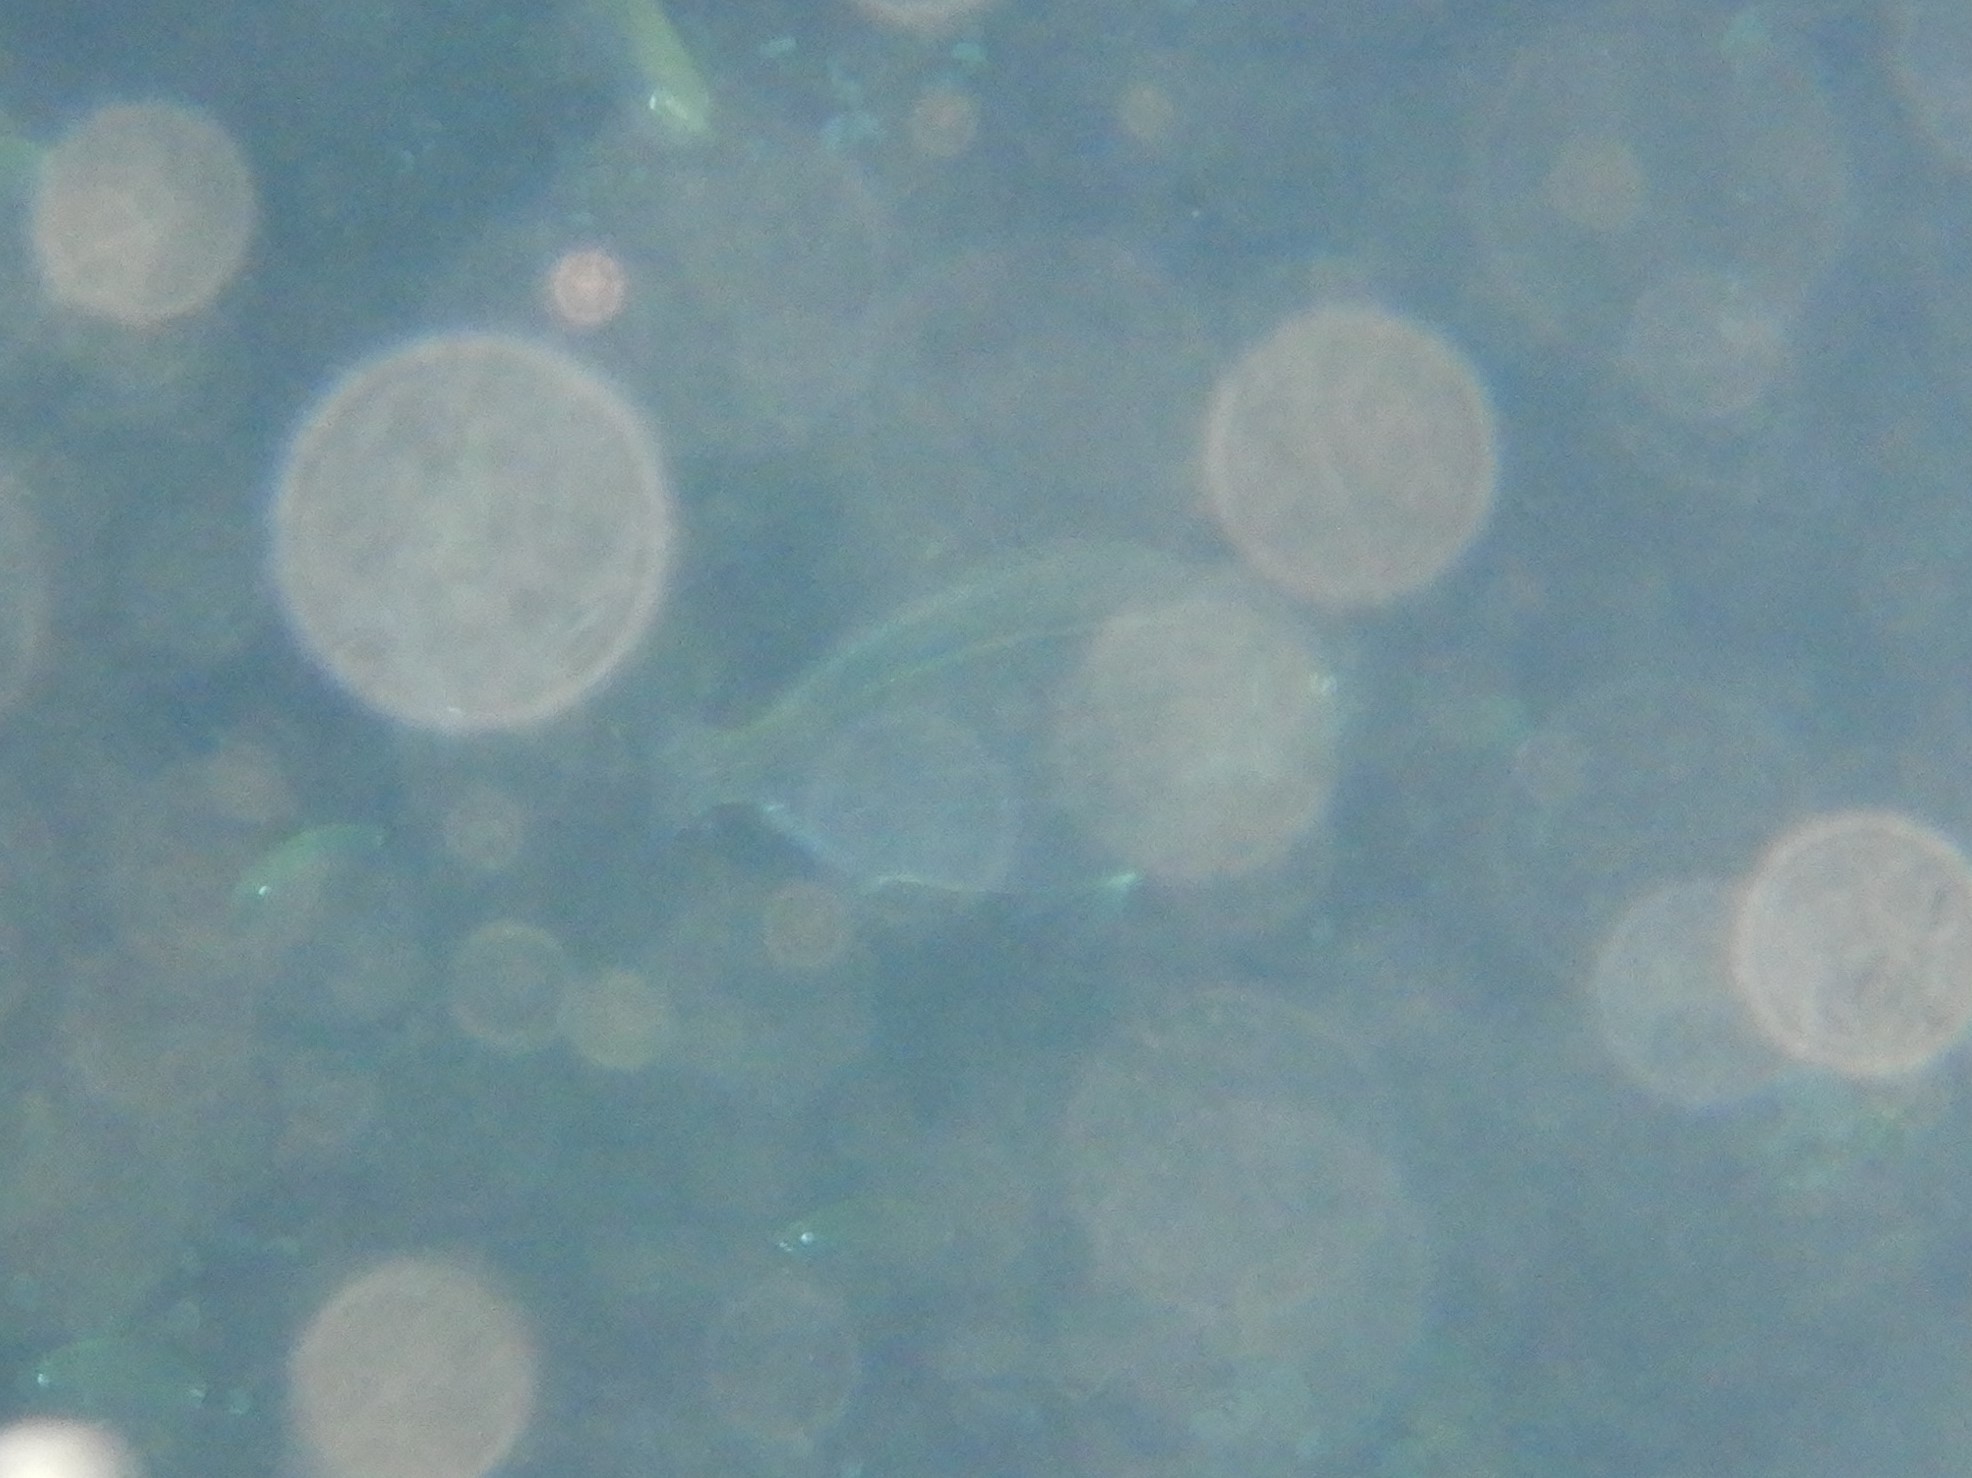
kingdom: Animalia
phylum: Chordata
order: Perciformes
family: Sparidae
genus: Sarpa
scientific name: Sarpa salpa
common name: Salema
